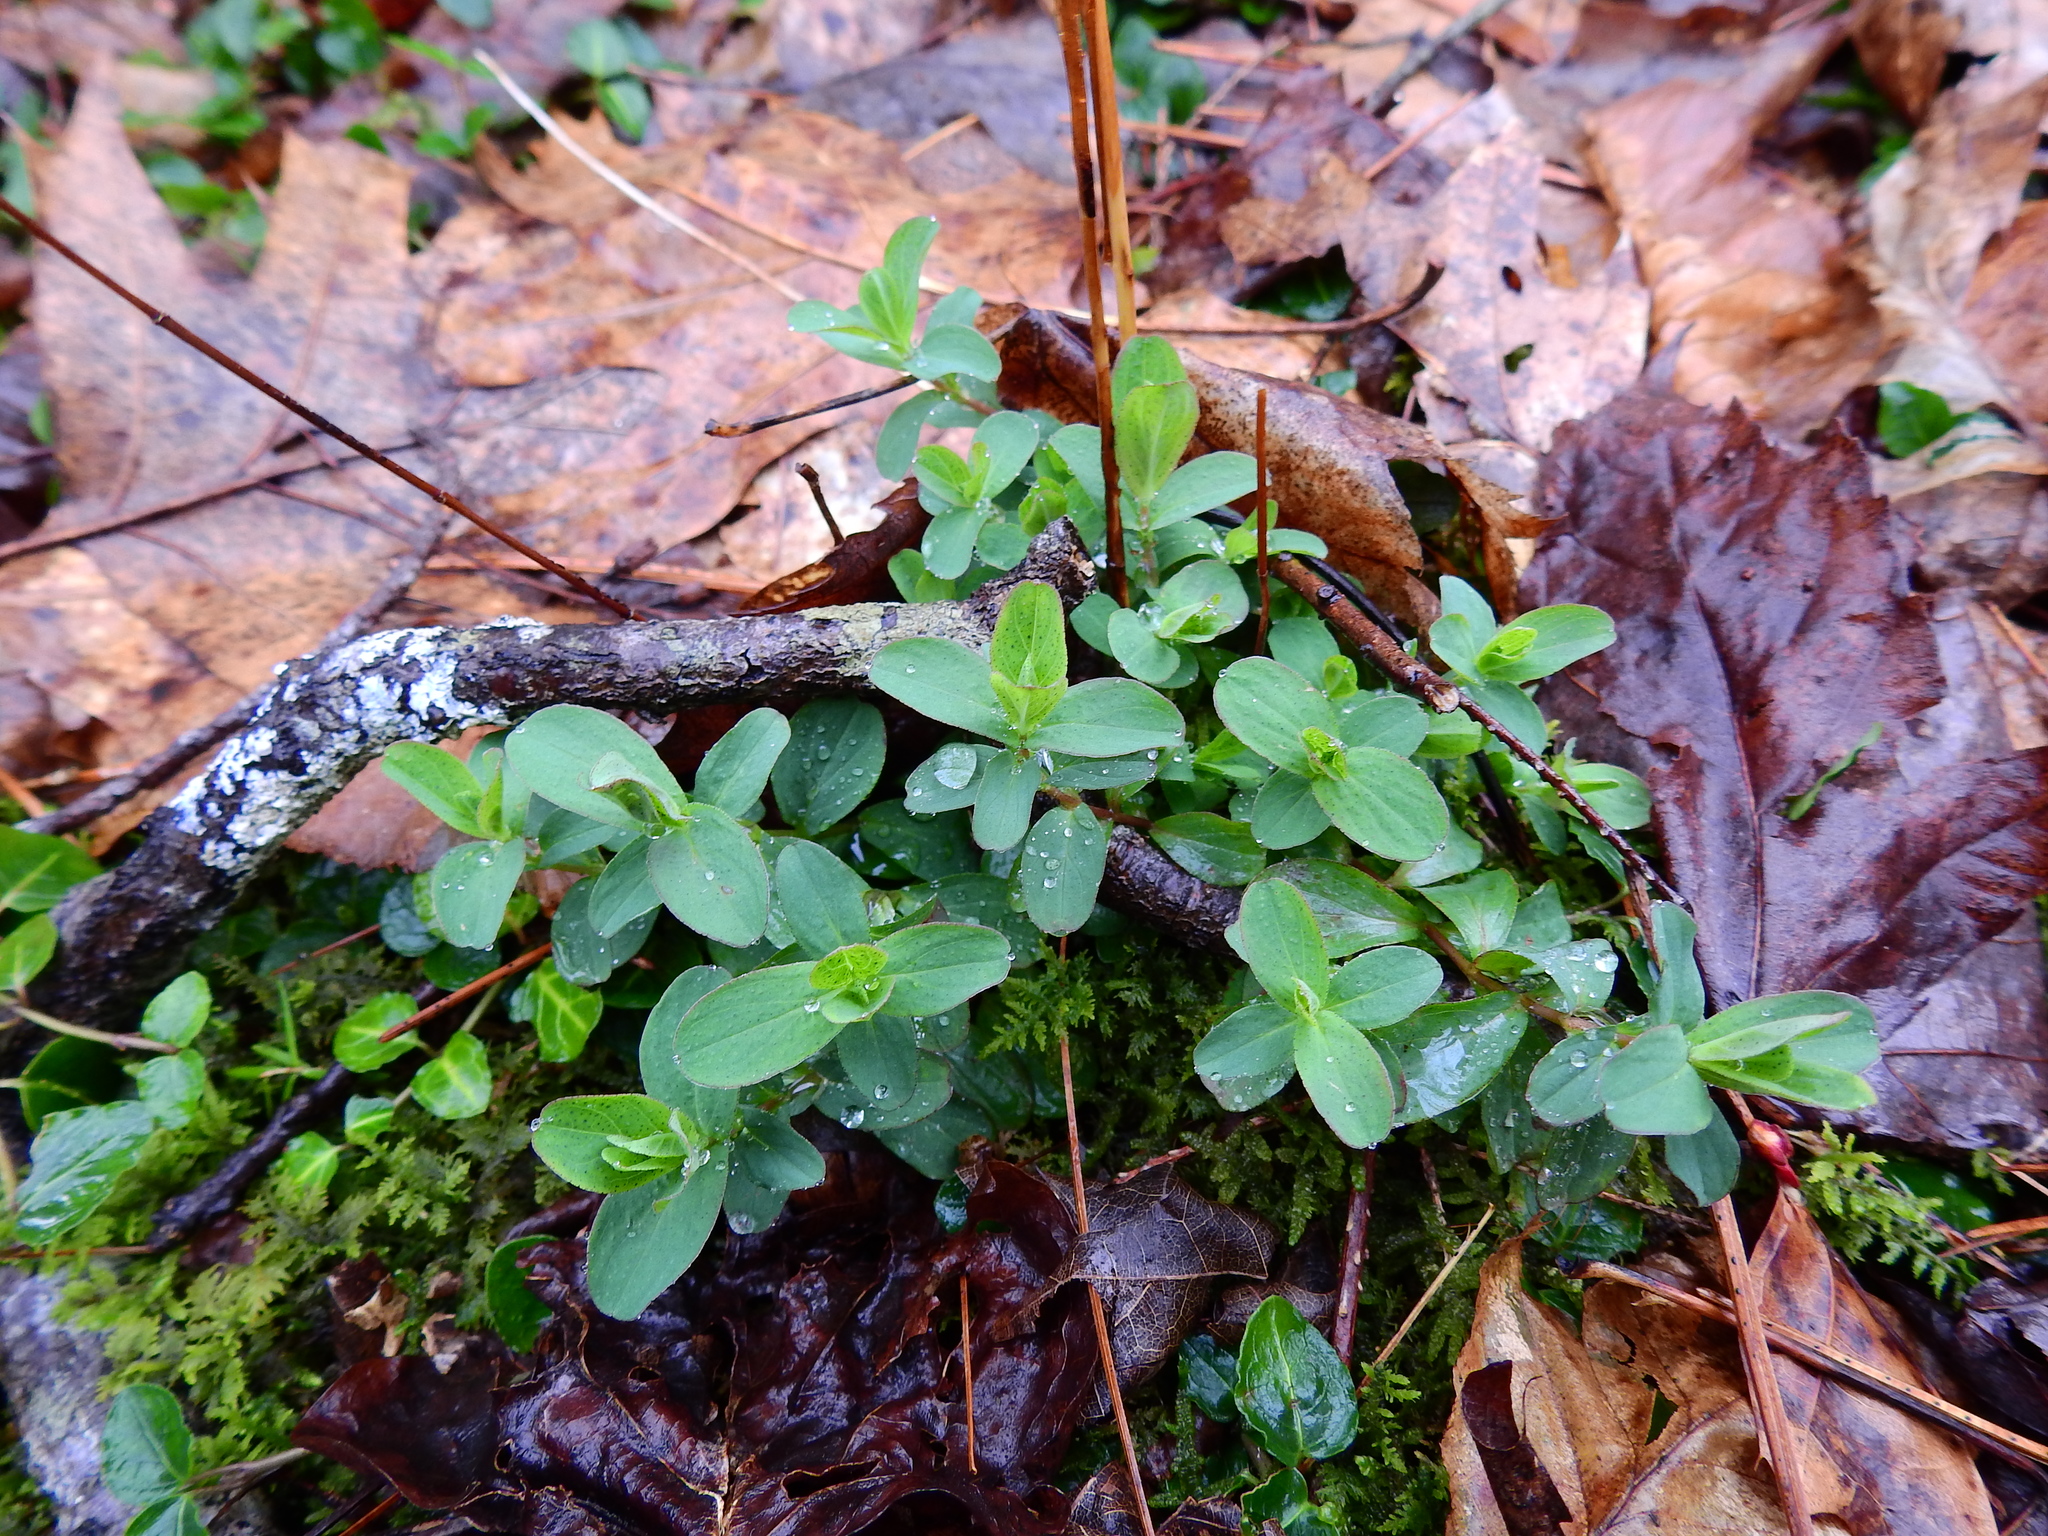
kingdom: Plantae
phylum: Tracheophyta
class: Magnoliopsida
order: Malpighiales
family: Hypericaceae
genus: Hypericum
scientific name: Hypericum punctatum
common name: Spotted st. john's-wort
